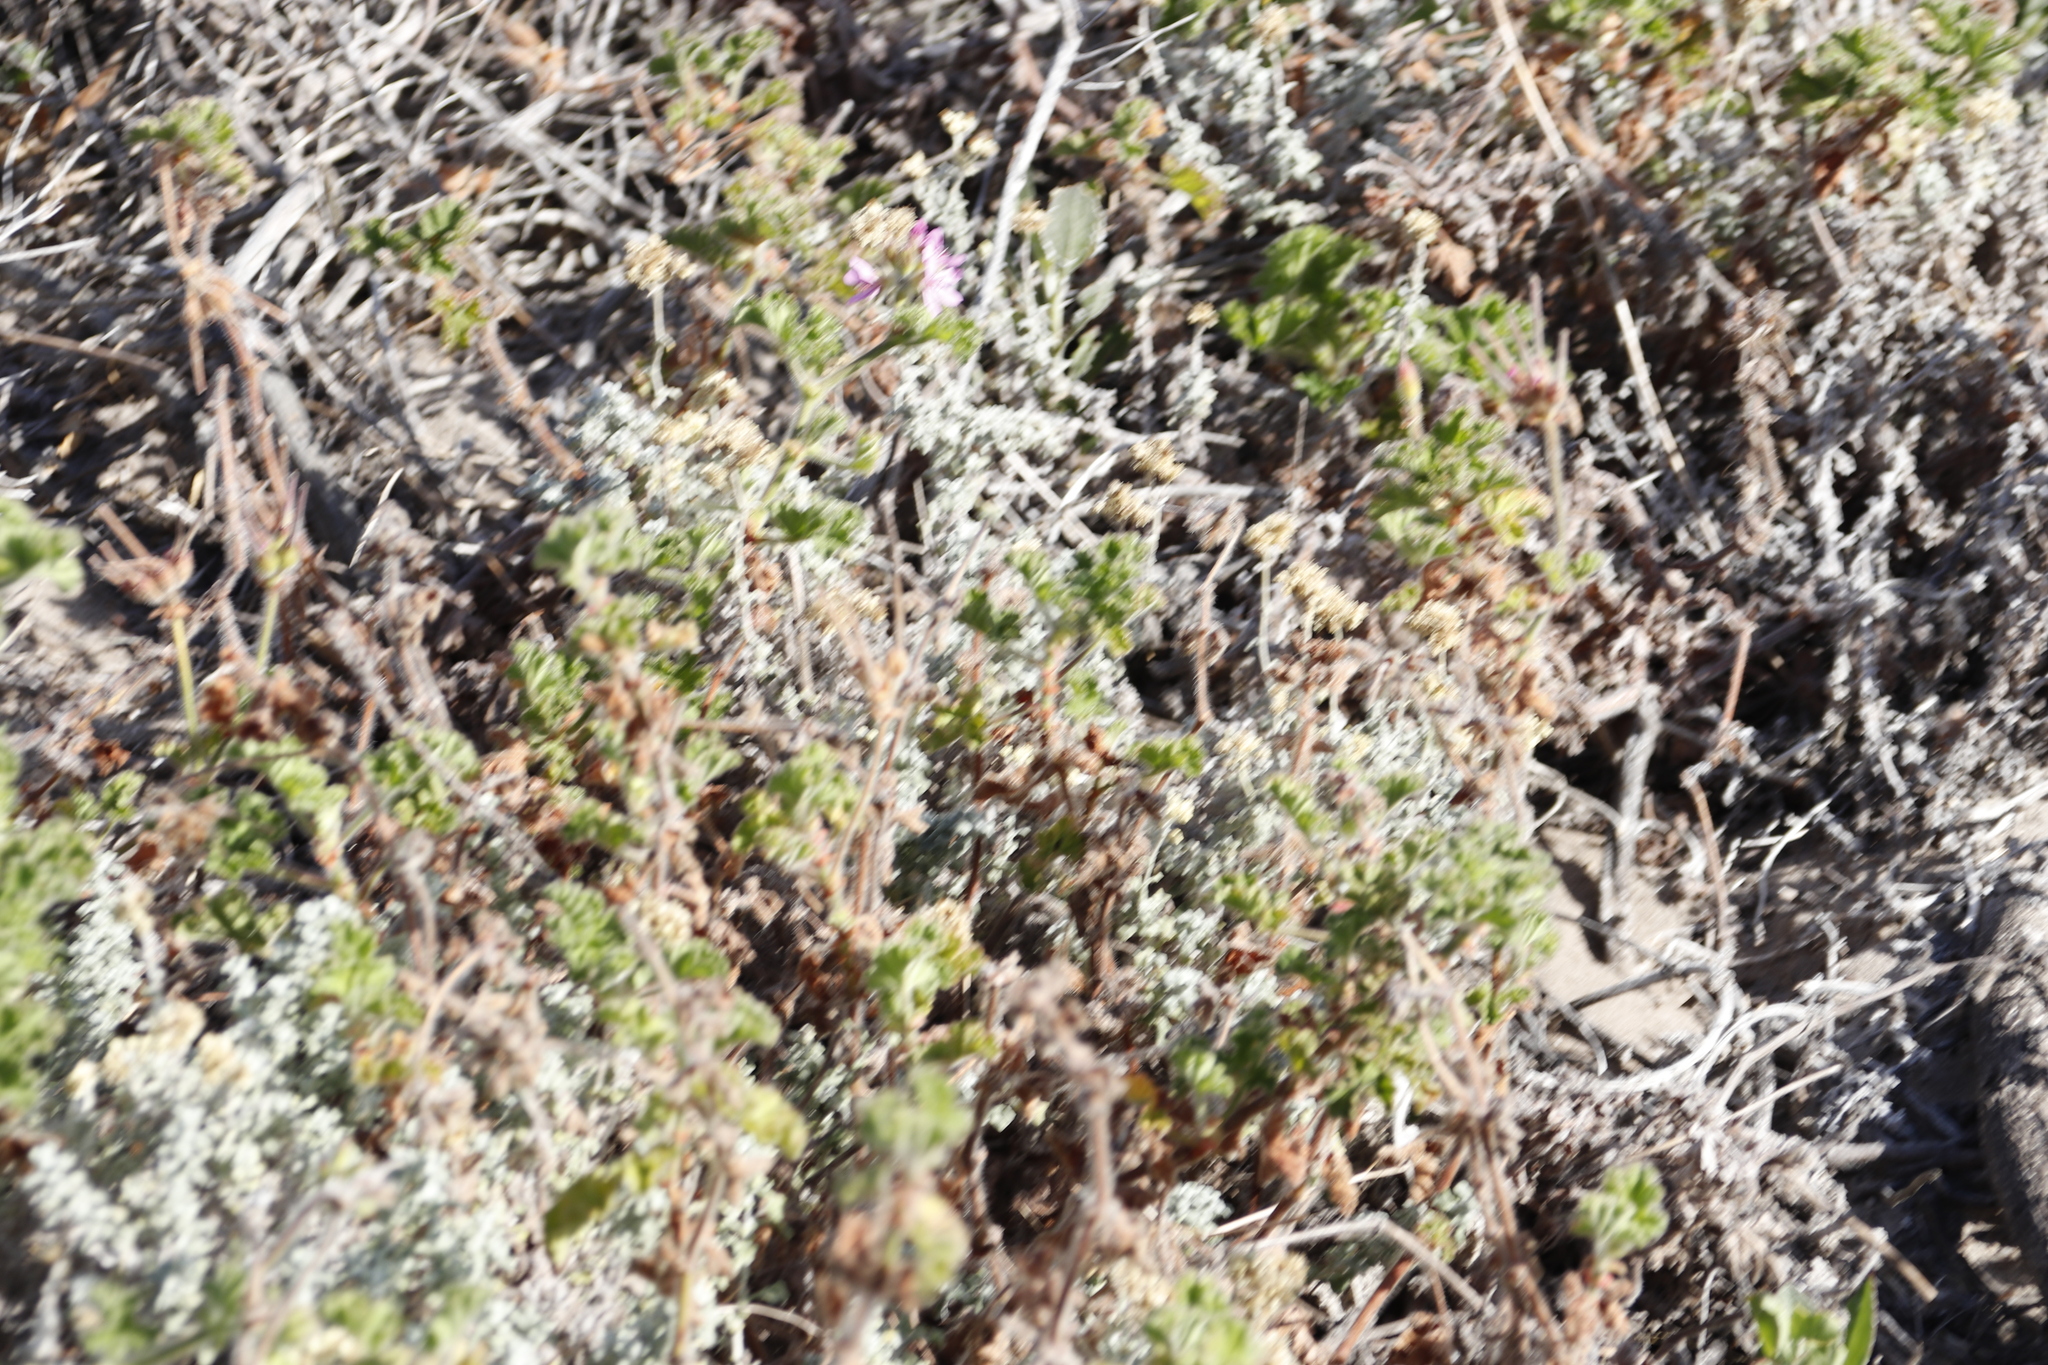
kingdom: Plantae
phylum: Tracheophyta
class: Magnoliopsida
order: Geraniales
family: Geraniaceae
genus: Pelargonium
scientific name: Pelargonium capitatum
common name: Rose scented geranium
